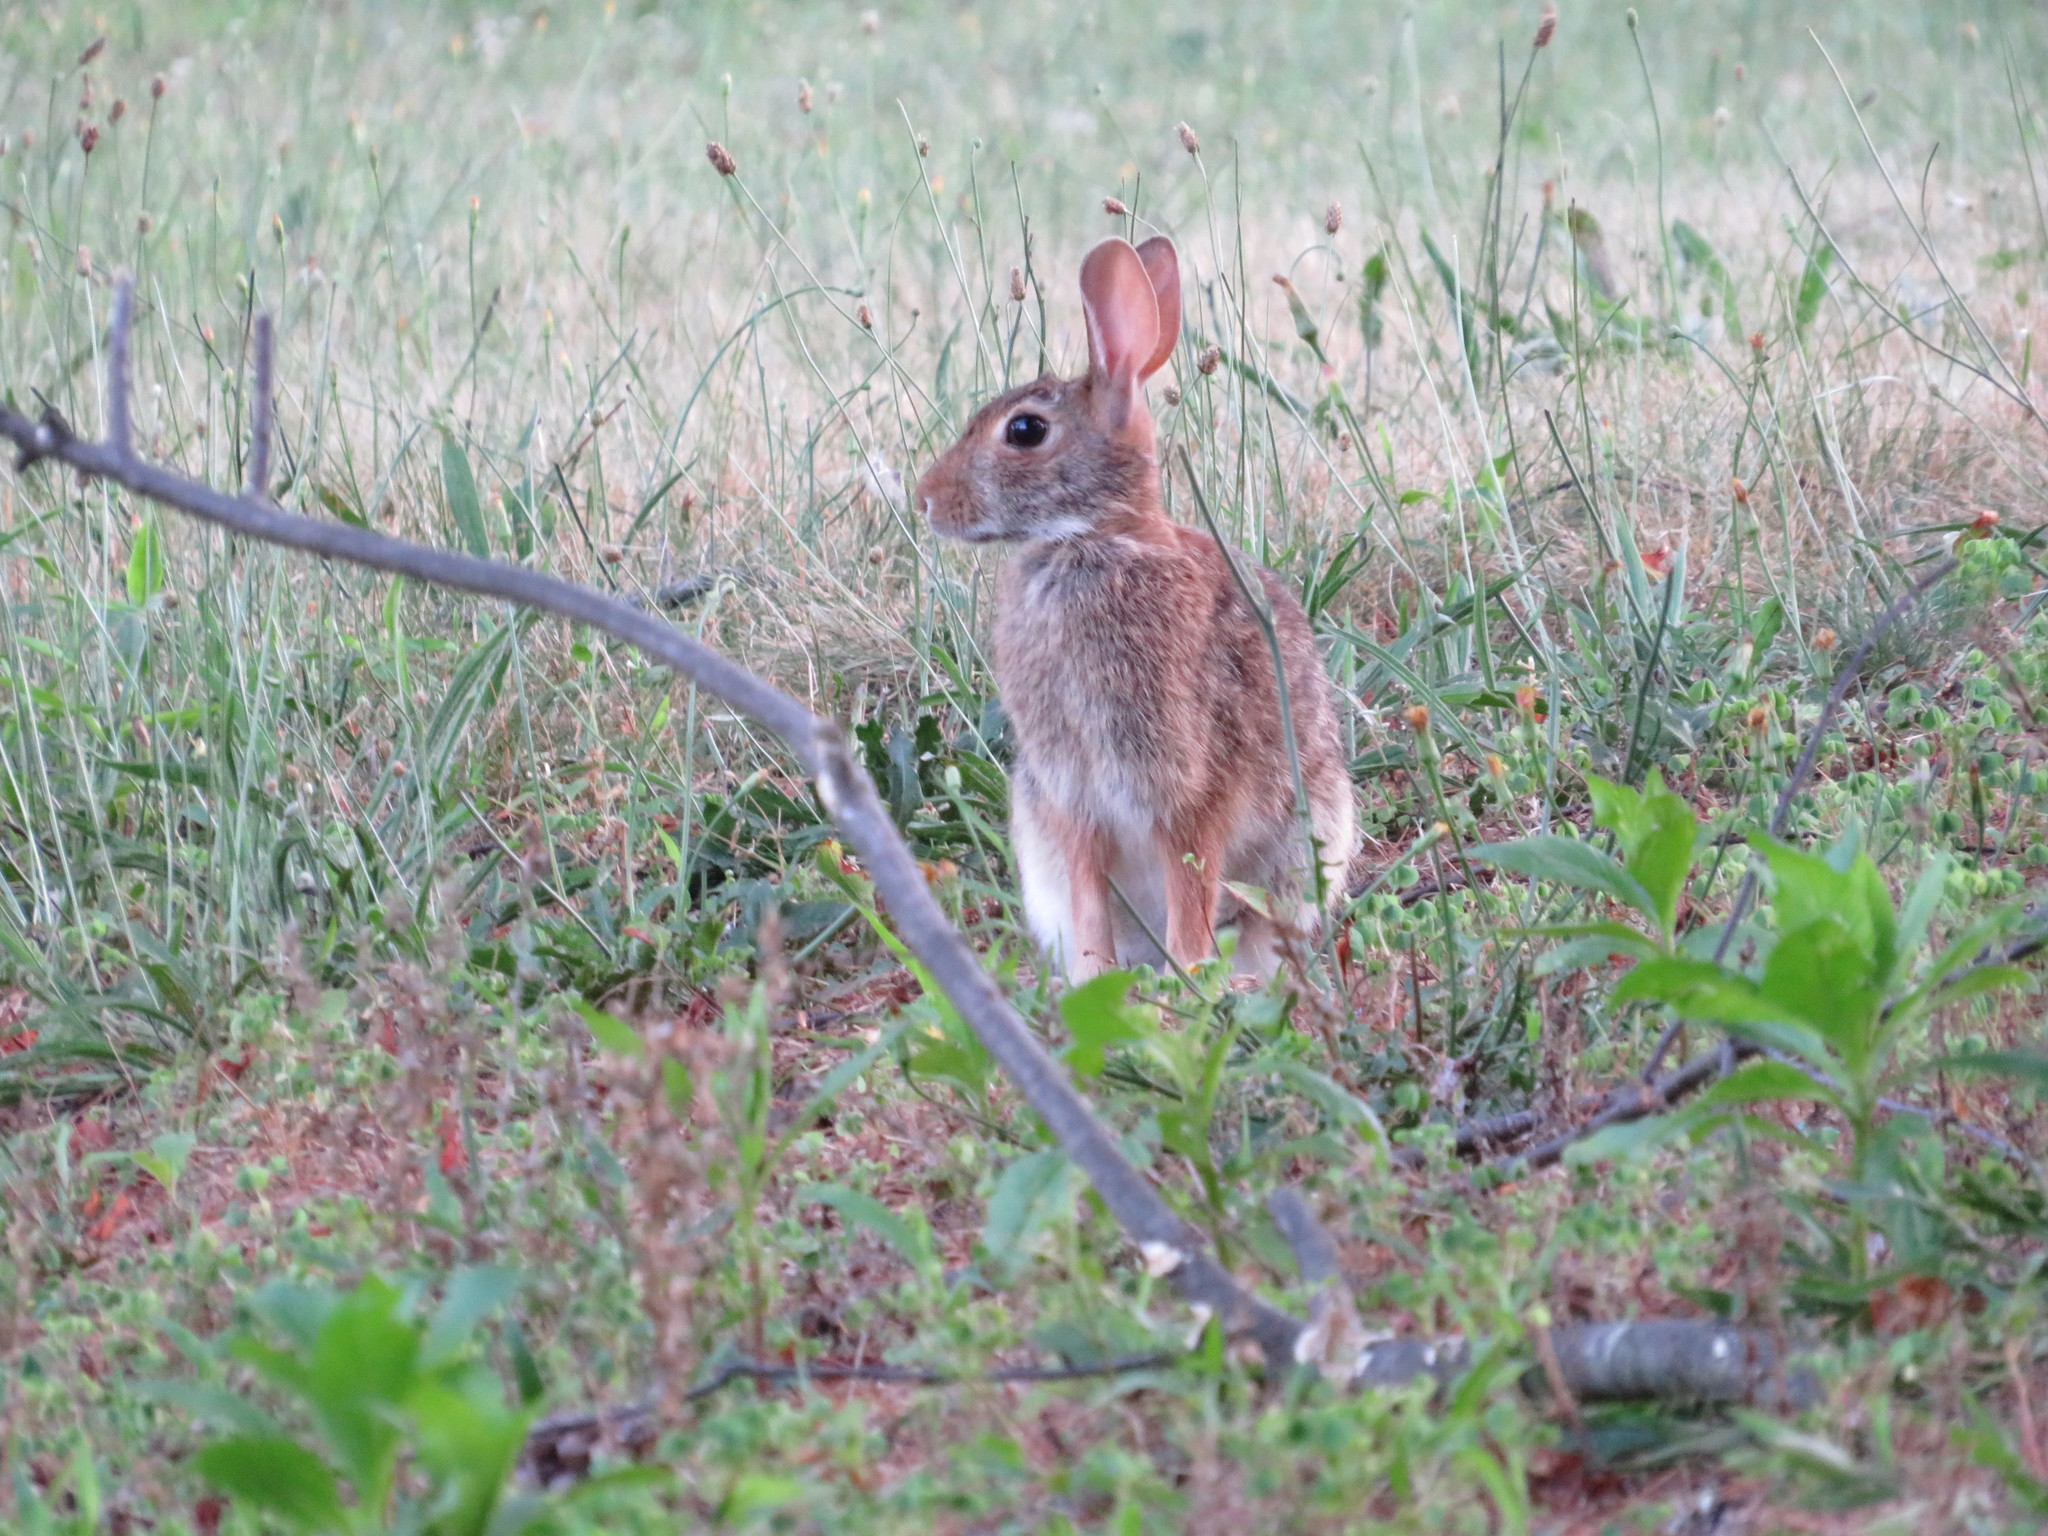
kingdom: Animalia
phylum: Chordata
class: Mammalia
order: Lagomorpha
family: Leporidae
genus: Sylvilagus
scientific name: Sylvilagus floridanus
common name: Eastern cottontail
